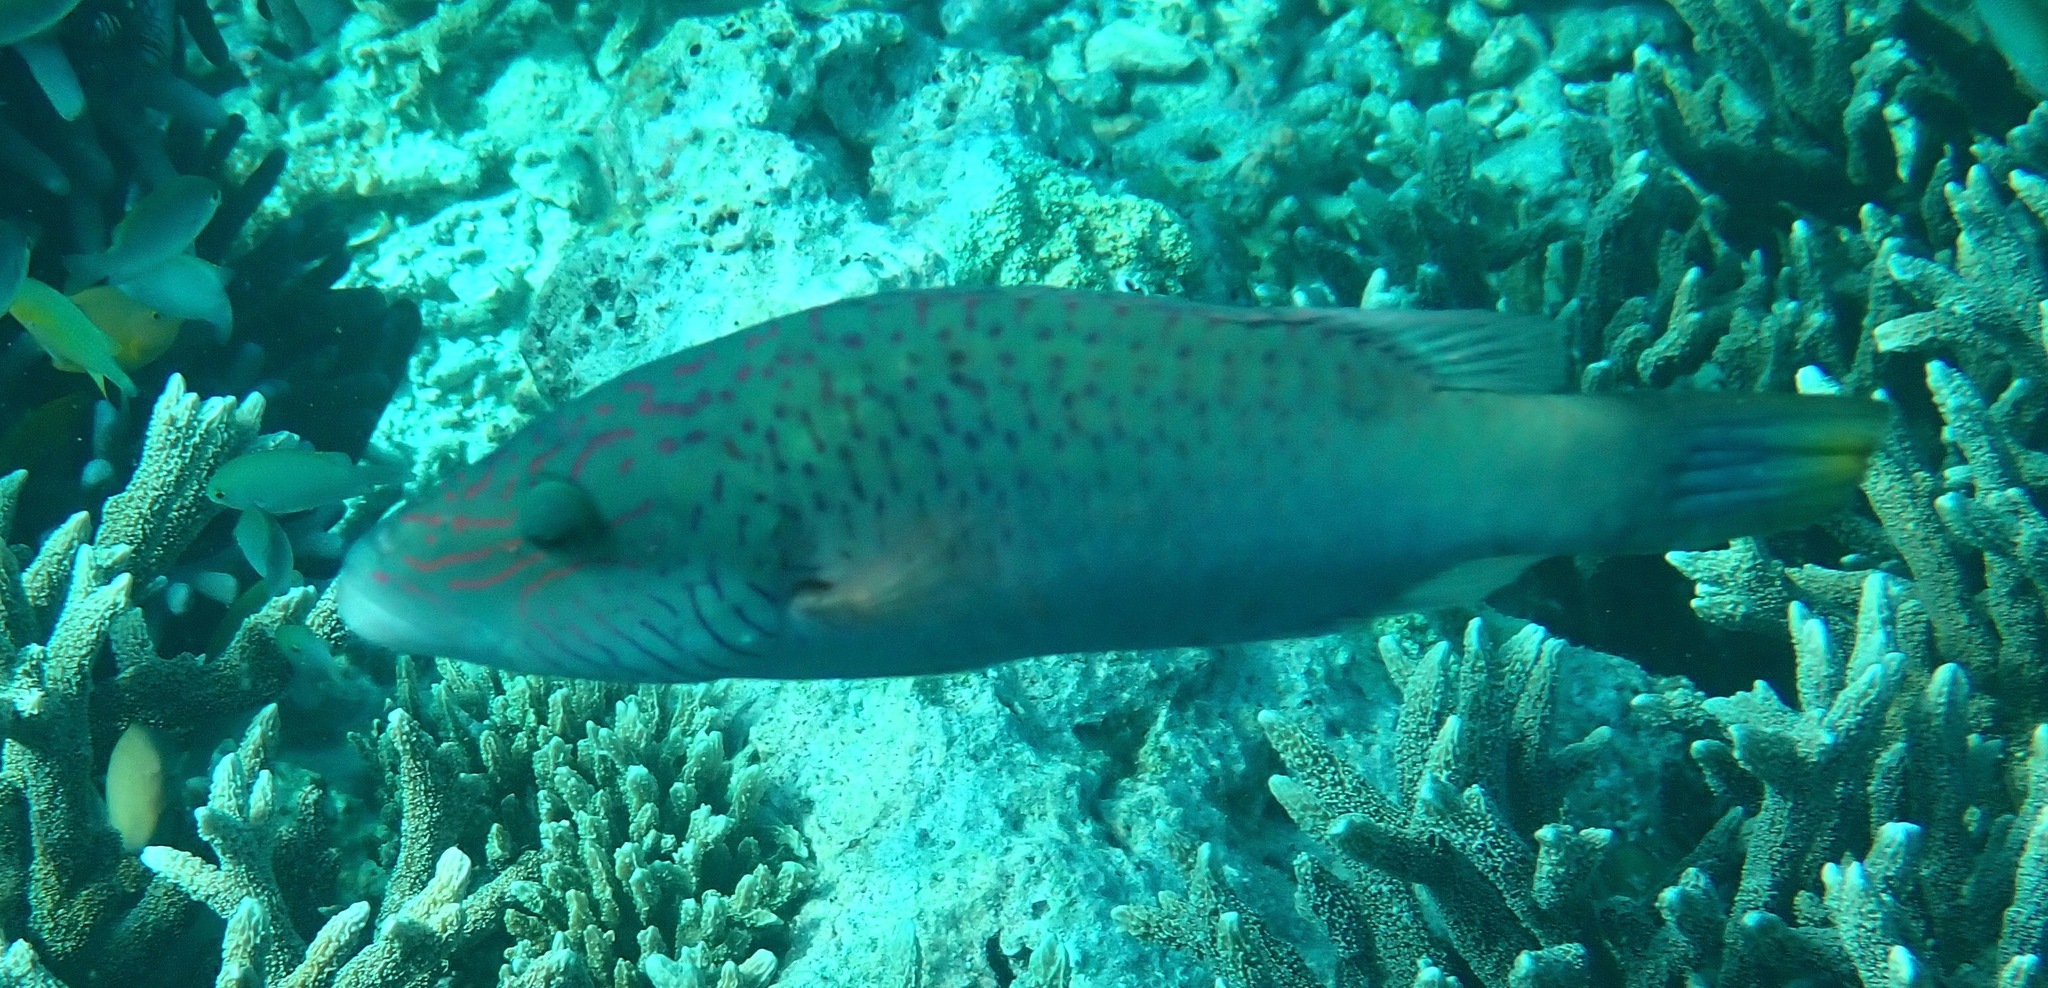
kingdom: Animalia
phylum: Chordata
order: Perciformes
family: Labridae
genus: Oxycheilinus
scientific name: Oxycheilinus digramma
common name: Bandcheek wrasse
